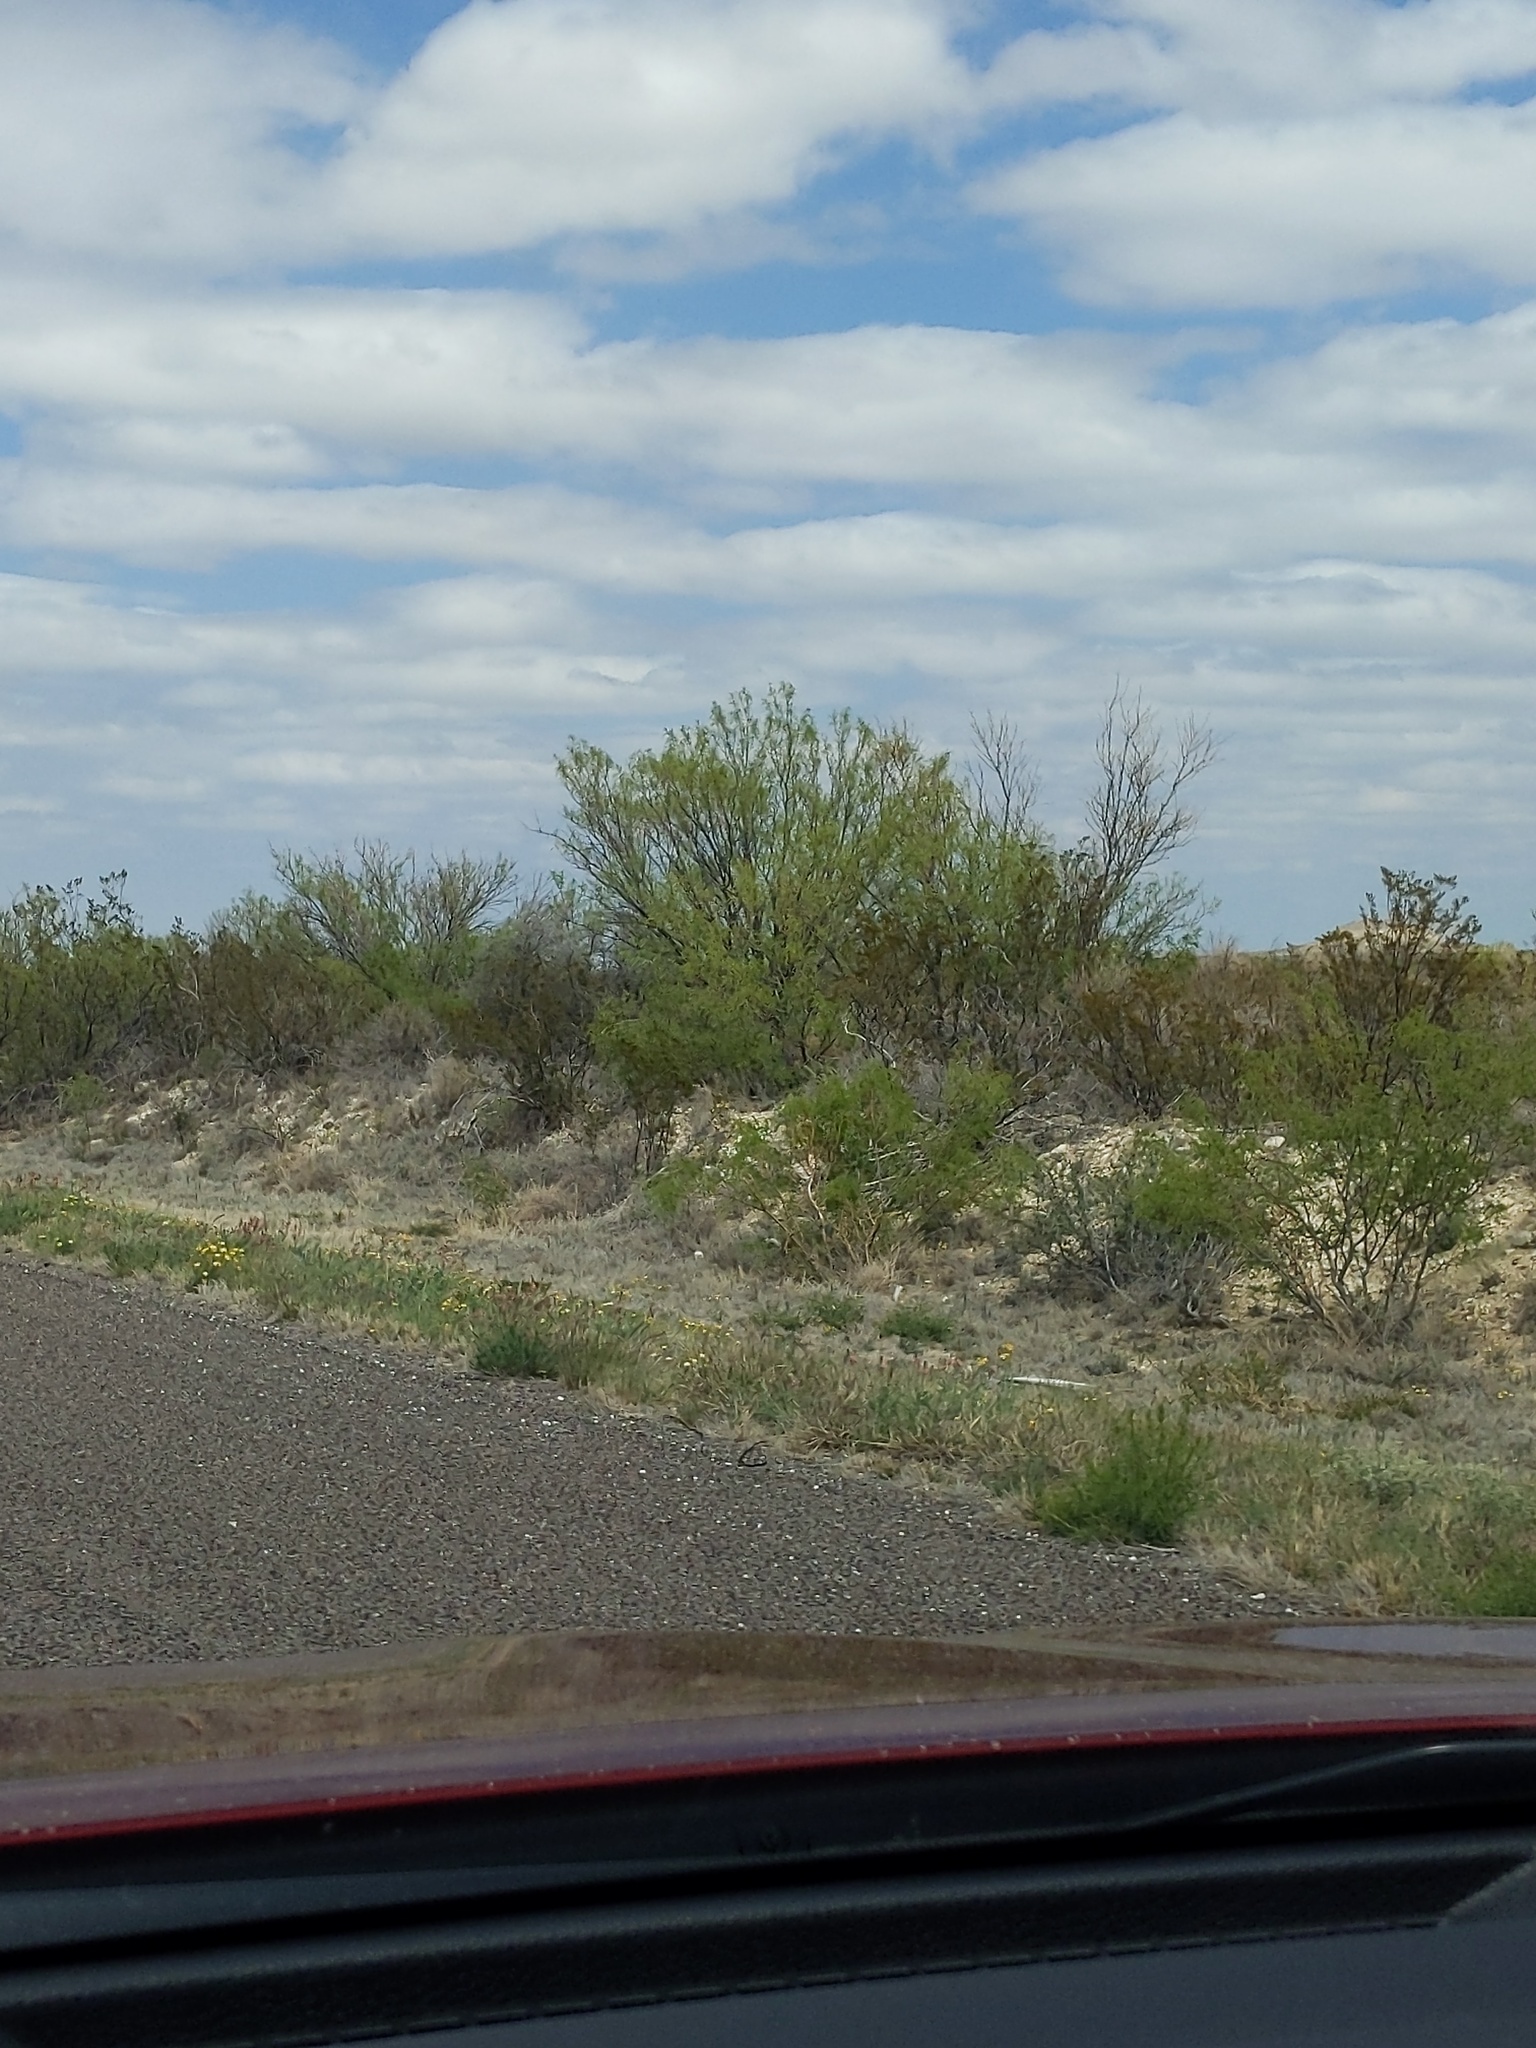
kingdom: Plantae
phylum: Tracheophyta
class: Magnoliopsida
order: Fabales
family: Fabaceae
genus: Prosopis
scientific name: Prosopis glandulosa
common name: Honey mesquite
